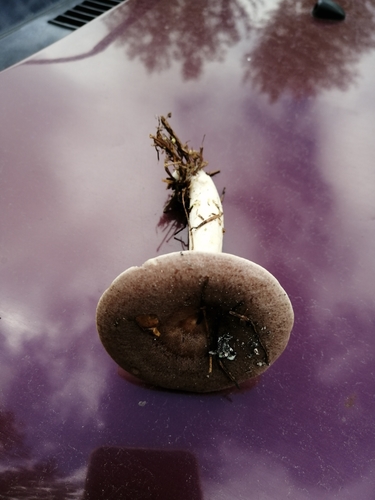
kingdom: Fungi
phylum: Basidiomycota
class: Agaricomycetes
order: Russulales
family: Russulaceae
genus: Lactarius
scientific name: Lactarius trivialis
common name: Tacked milkcap
